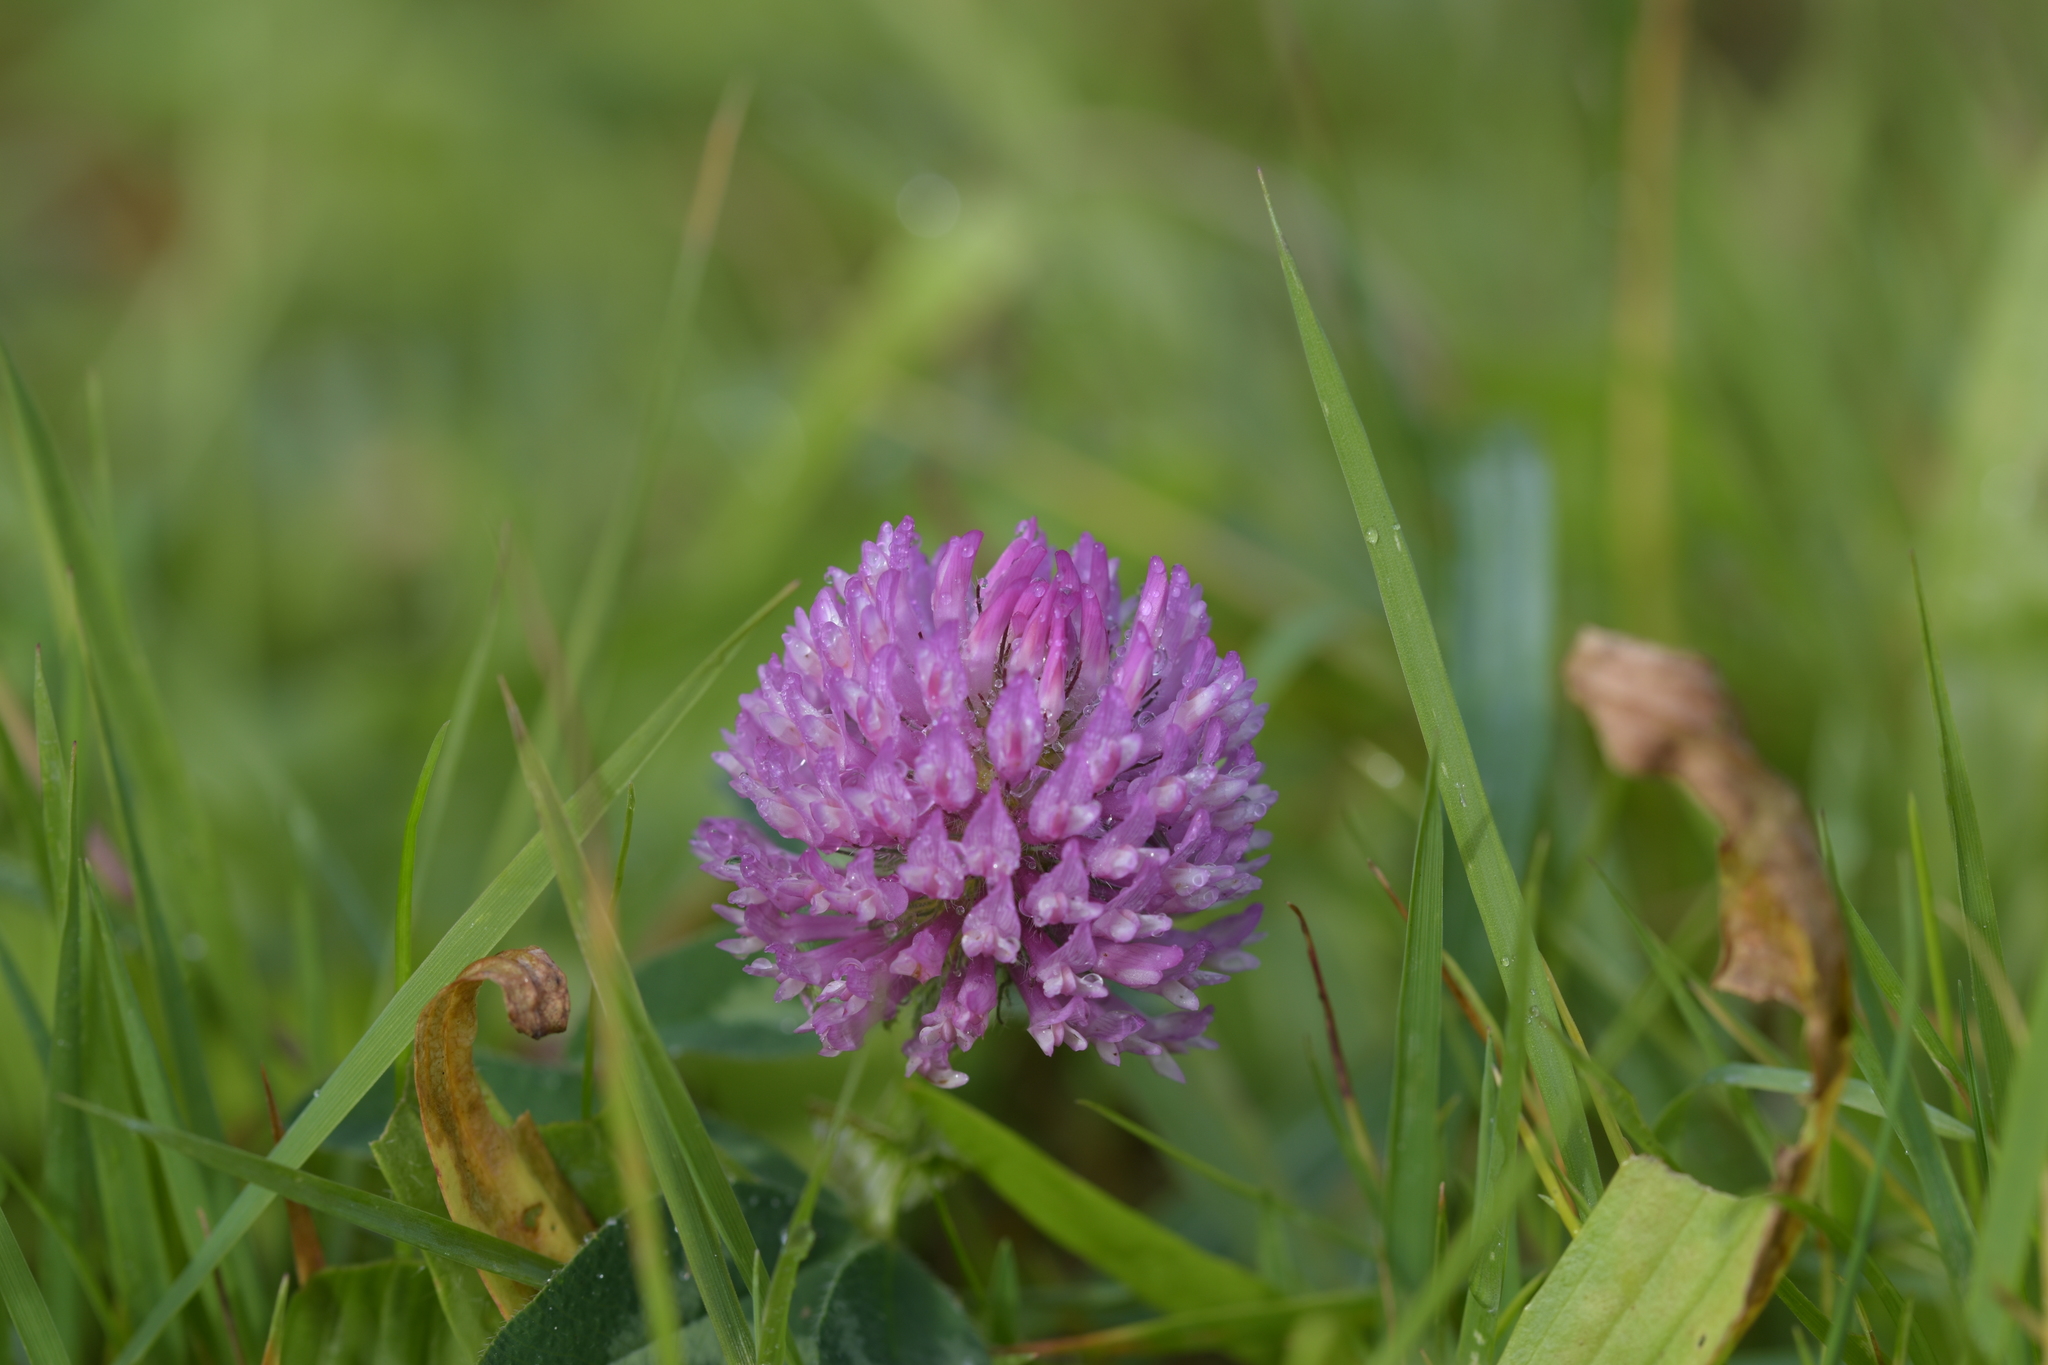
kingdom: Plantae
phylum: Tracheophyta
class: Magnoliopsida
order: Fabales
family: Fabaceae
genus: Trifolium
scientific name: Trifolium pratense
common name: Red clover
